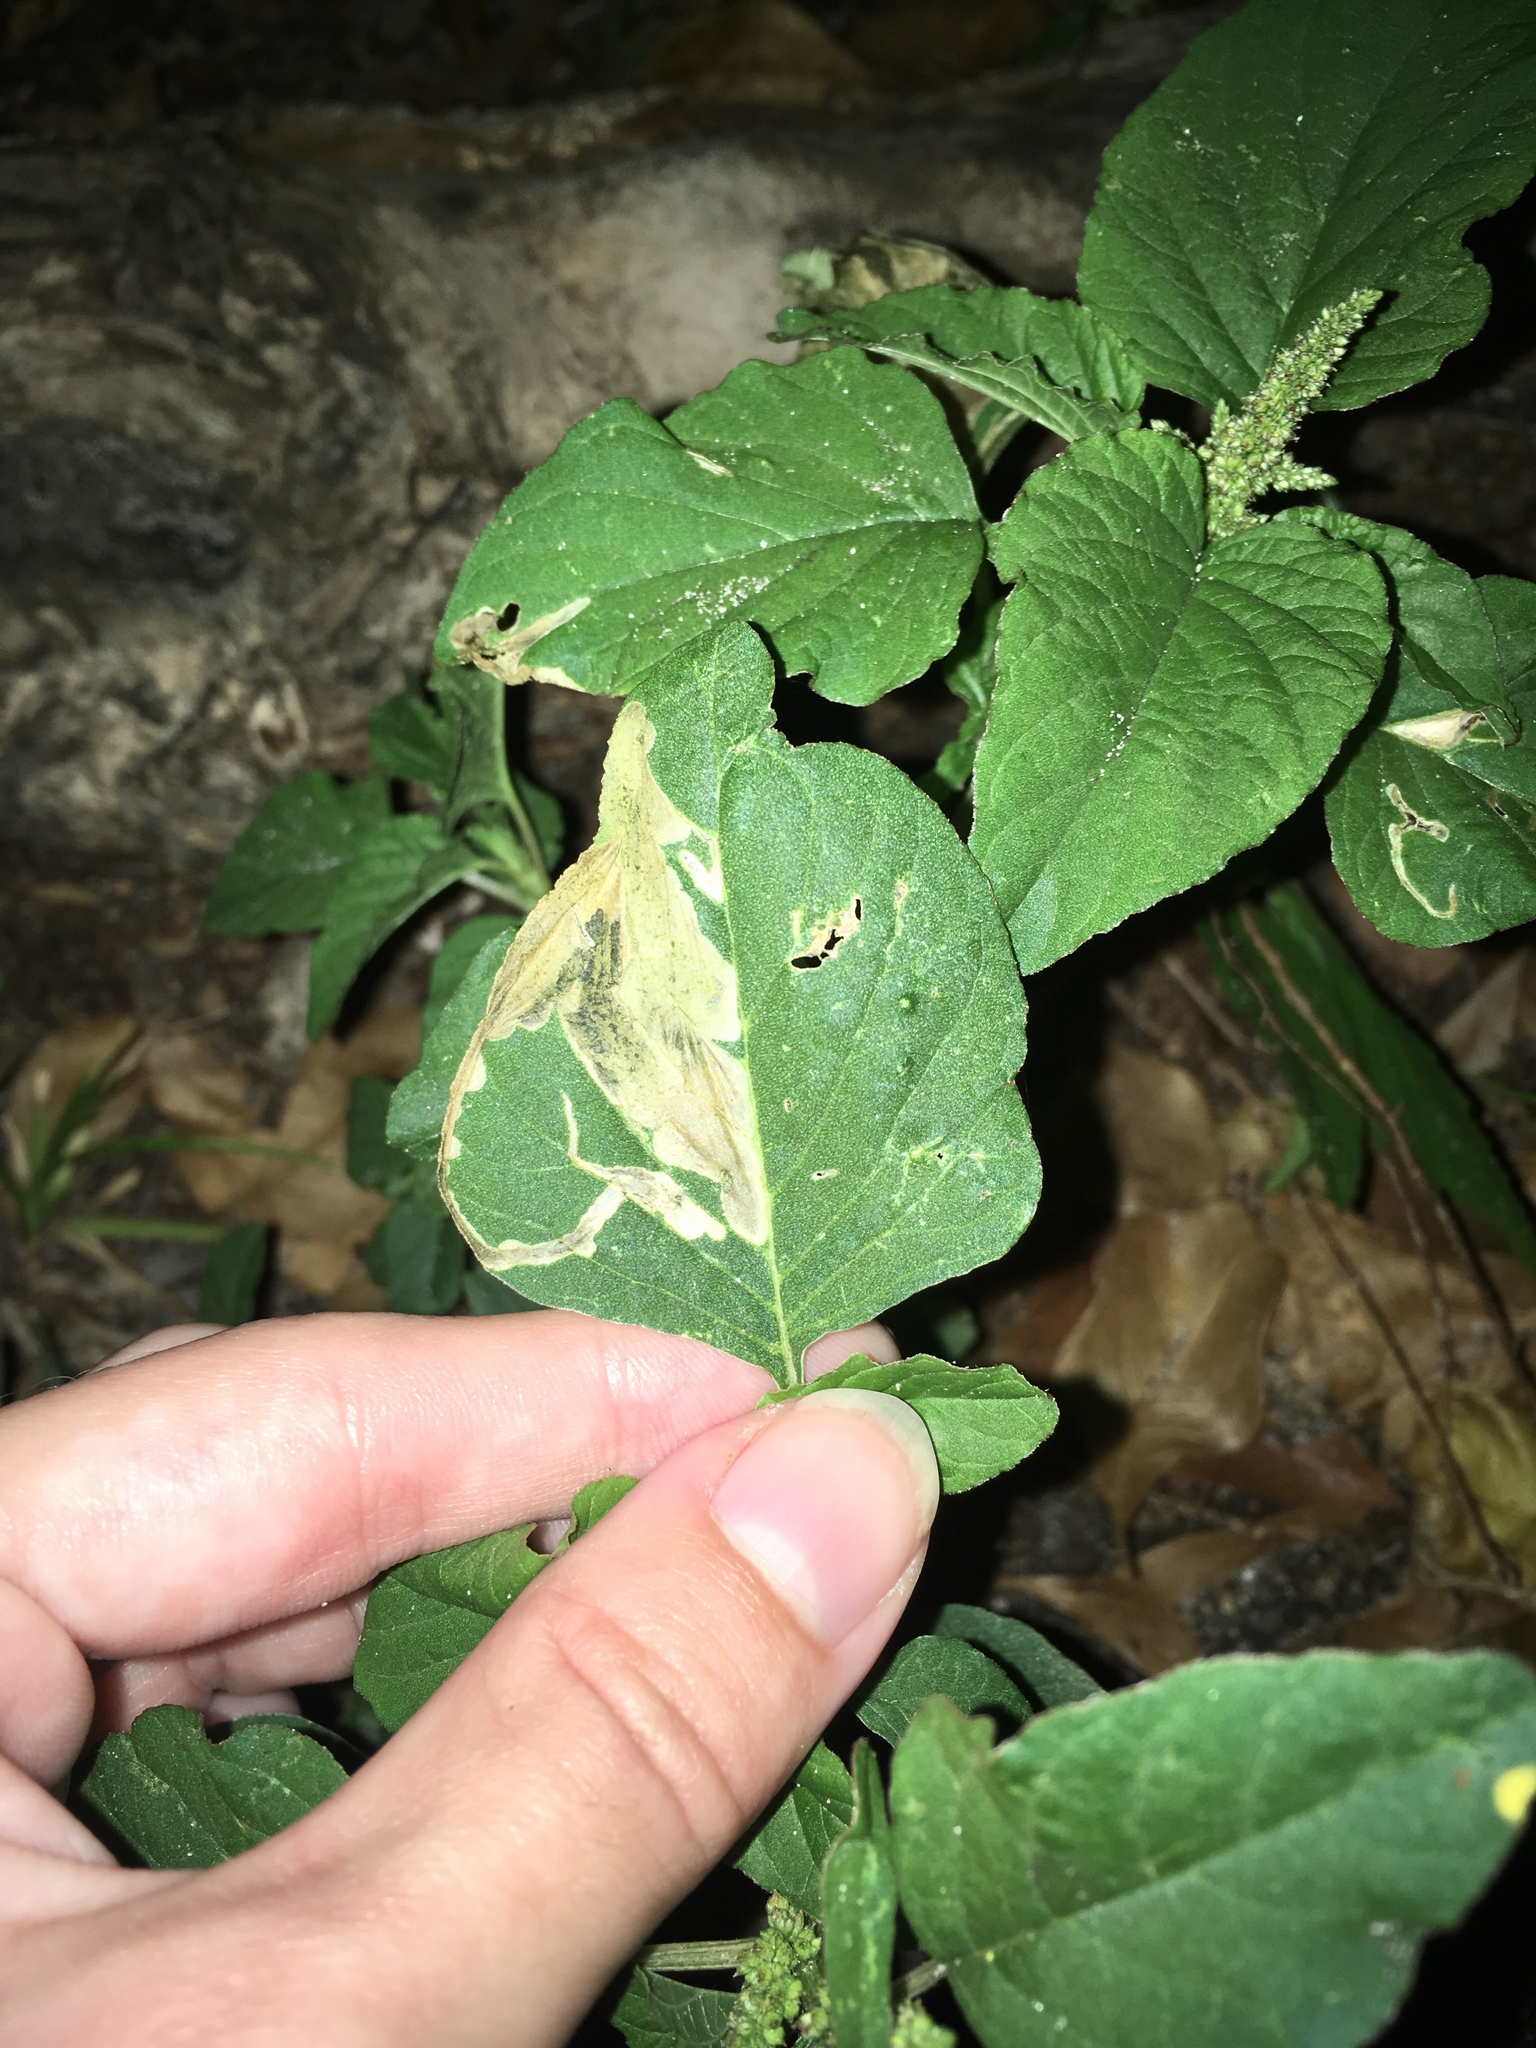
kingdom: Animalia
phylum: Arthropoda
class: Insecta
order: Diptera
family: Anthomyiidae
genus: Pegomya
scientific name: Pegomya wygodzinskyi
